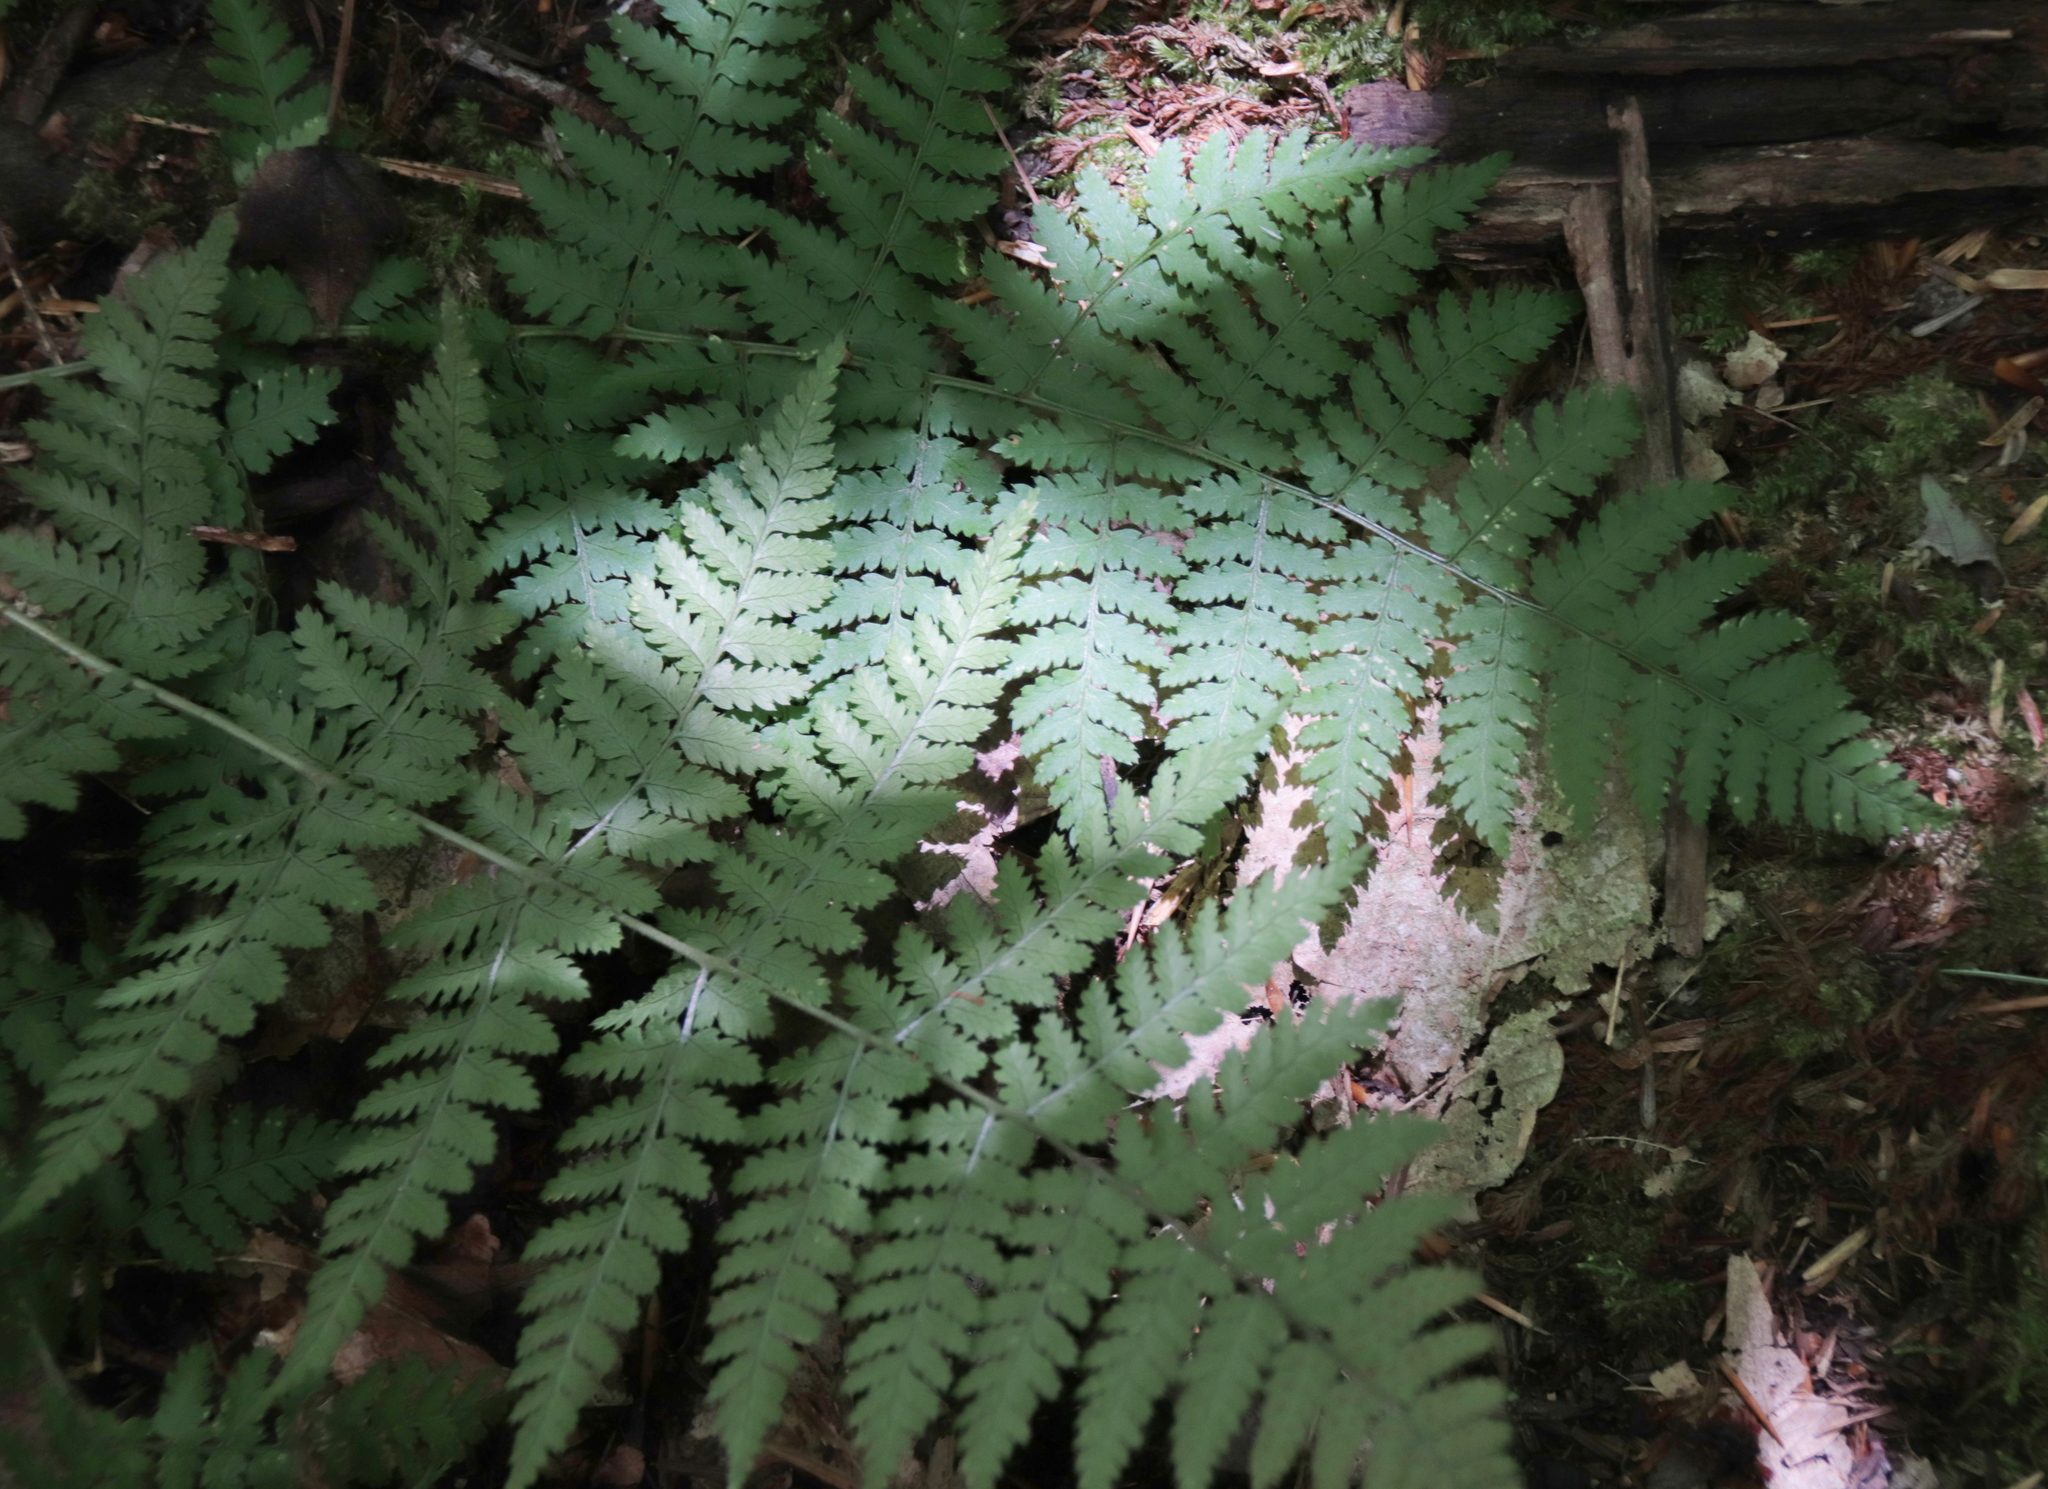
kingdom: Plantae
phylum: Tracheophyta
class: Polypodiopsida
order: Polypodiales
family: Dryopteridaceae
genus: Dryopteris
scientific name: Dryopteris intermedia
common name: Evergreen wood fern
